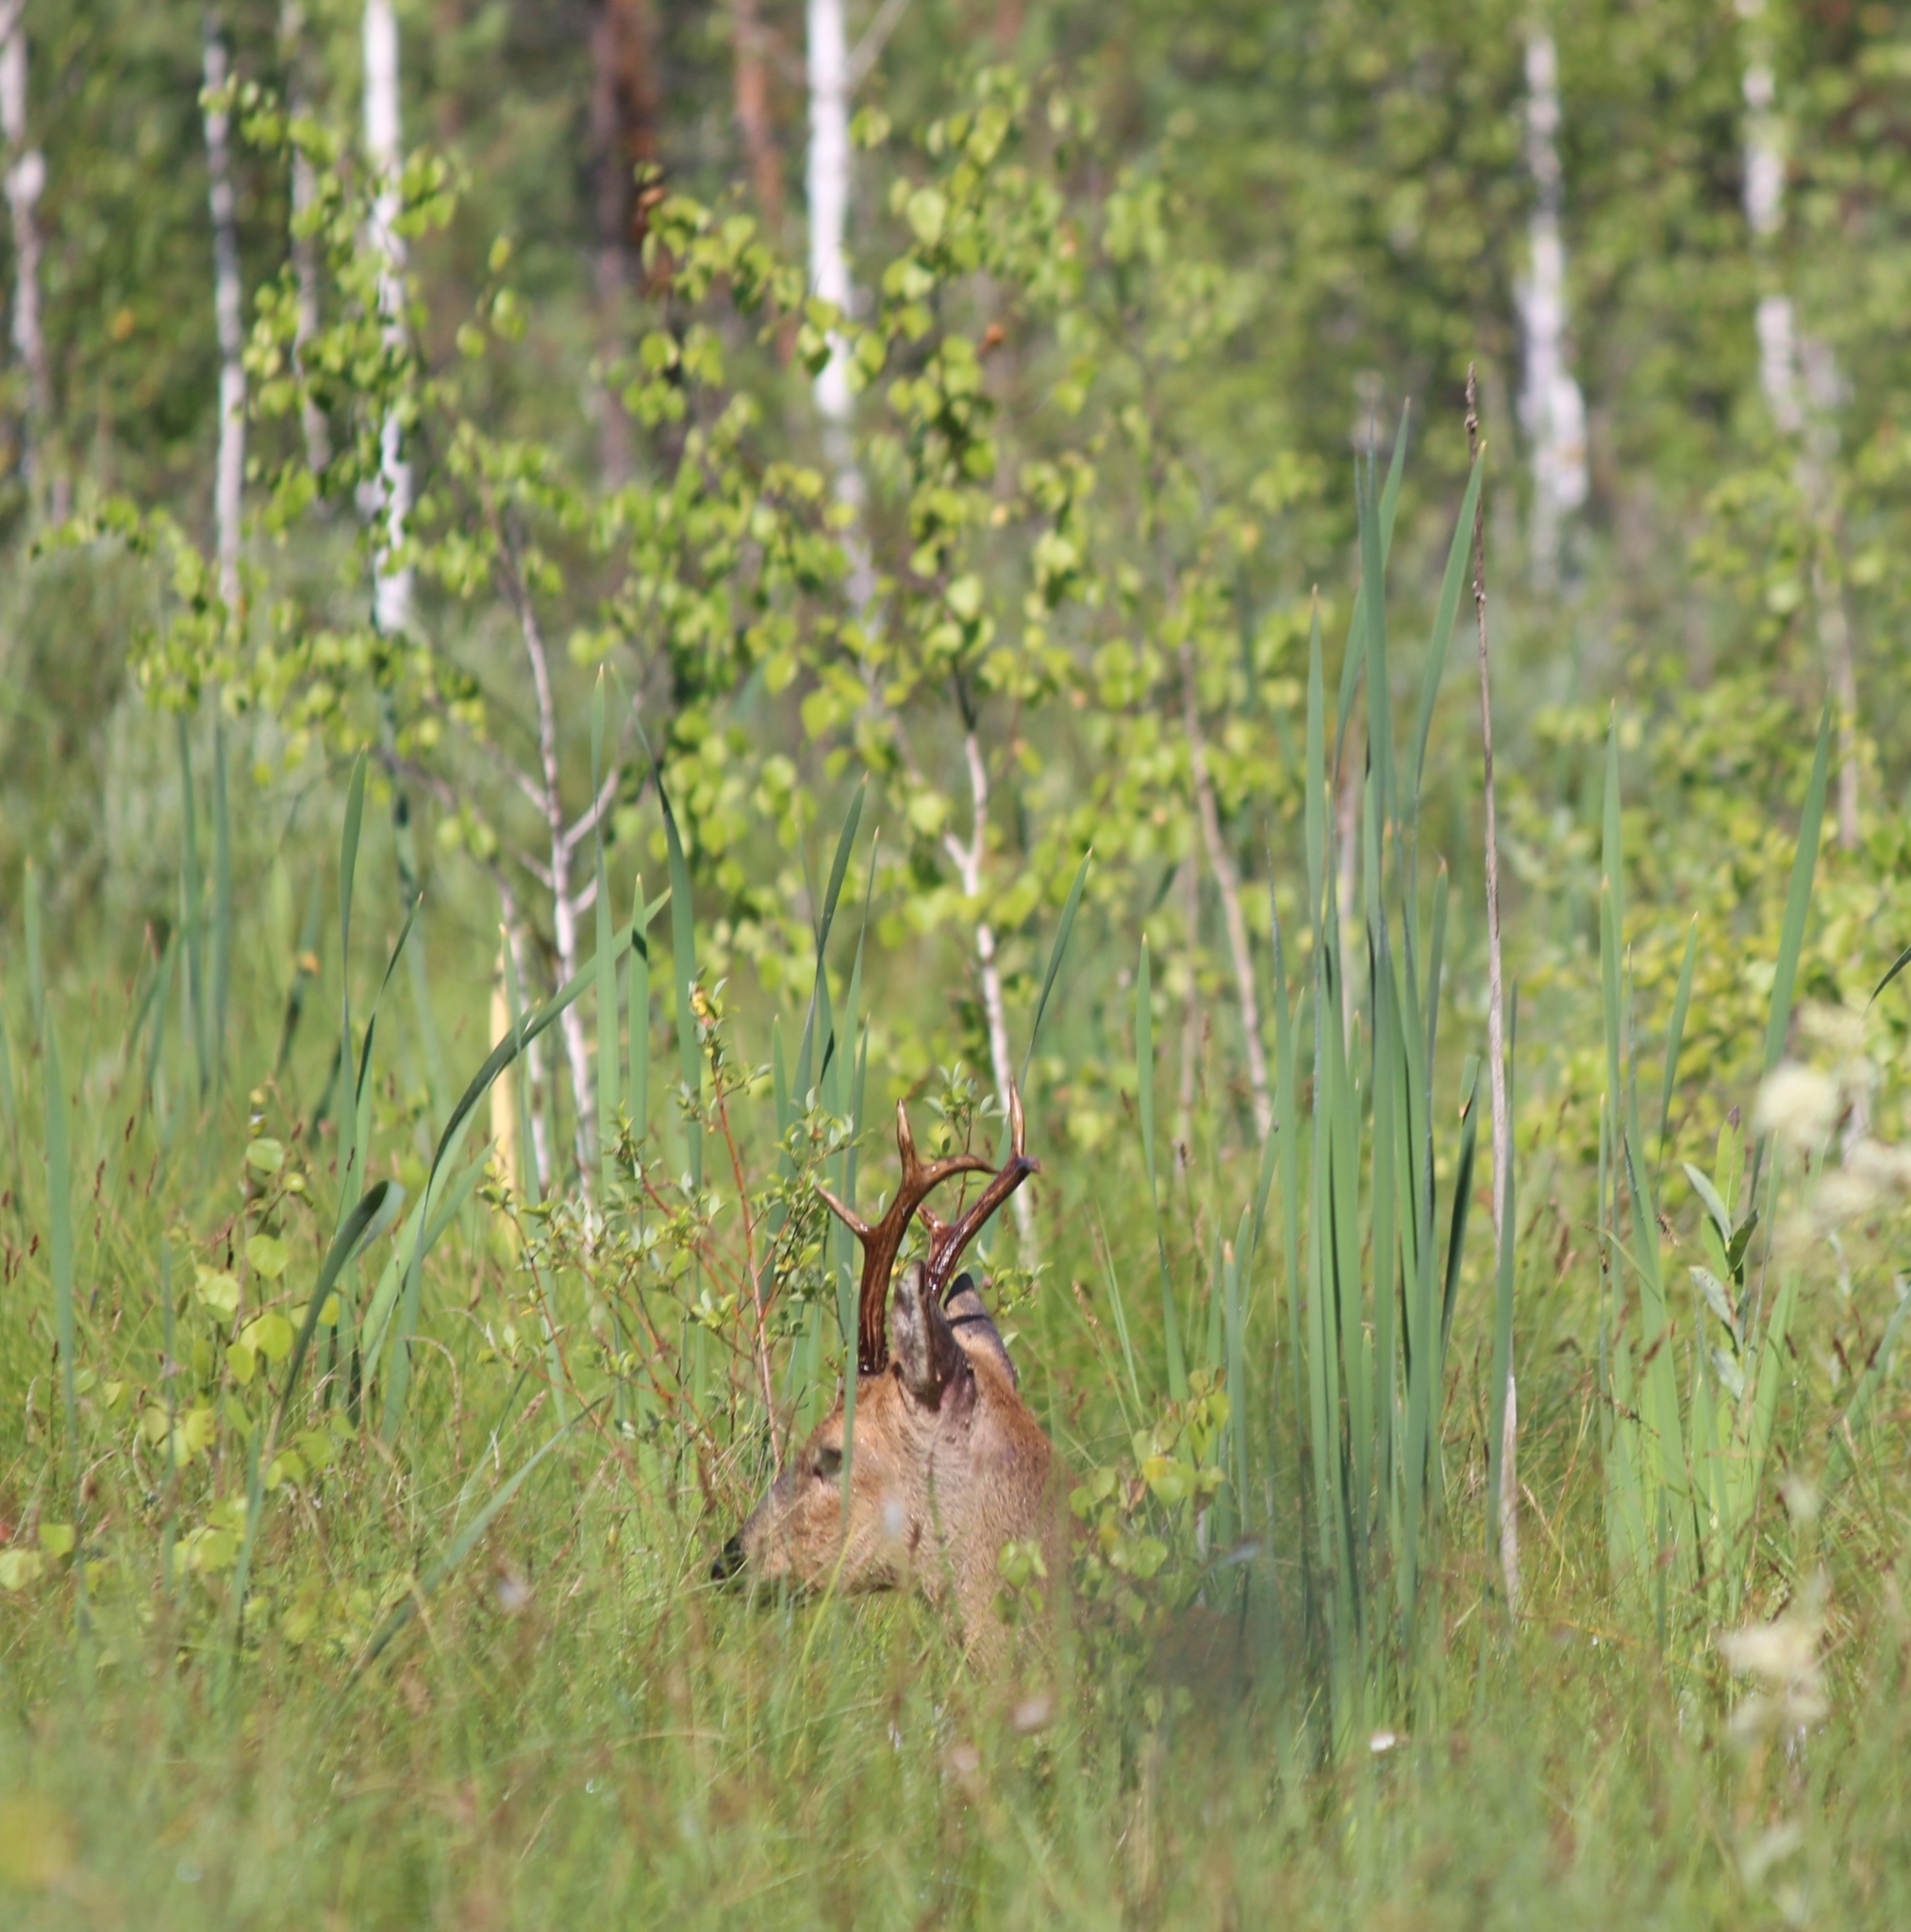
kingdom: Animalia
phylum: Chordata
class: Mammalia
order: Artiodactyla
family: Cervidae
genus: Capreolus
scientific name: Capreolus pygargus
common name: Siberian roe
